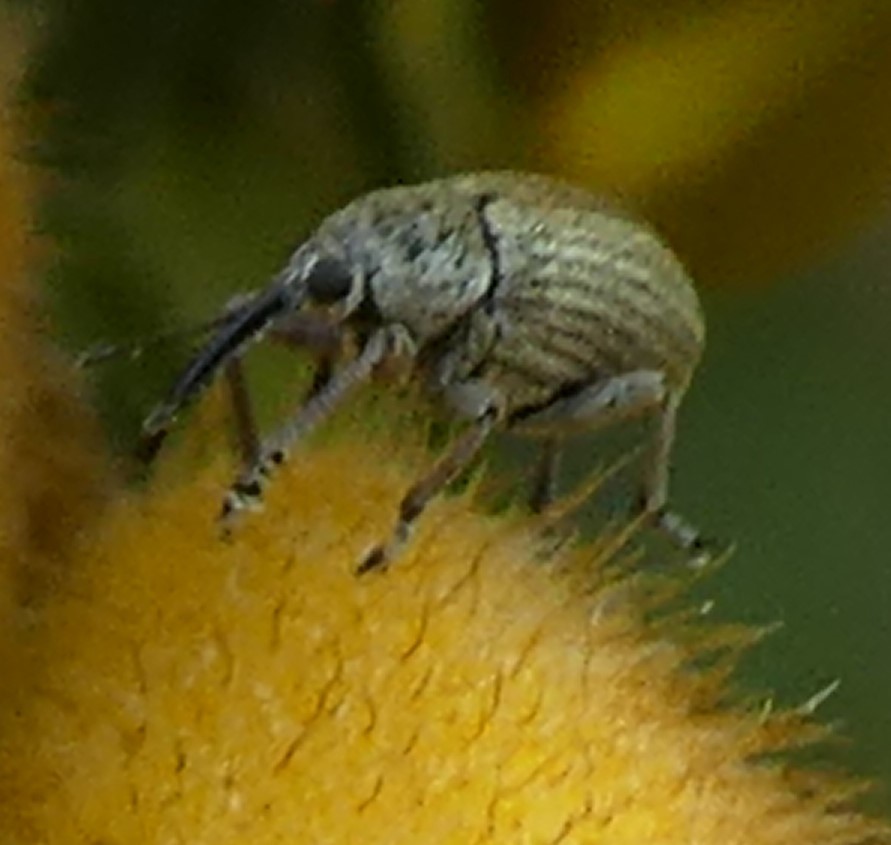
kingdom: Animalia
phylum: Arthropoda
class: Insecta
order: Coleoptera
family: Brentidae
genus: Exapion
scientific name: Exapion ulicis
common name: Gorse seed weevil
